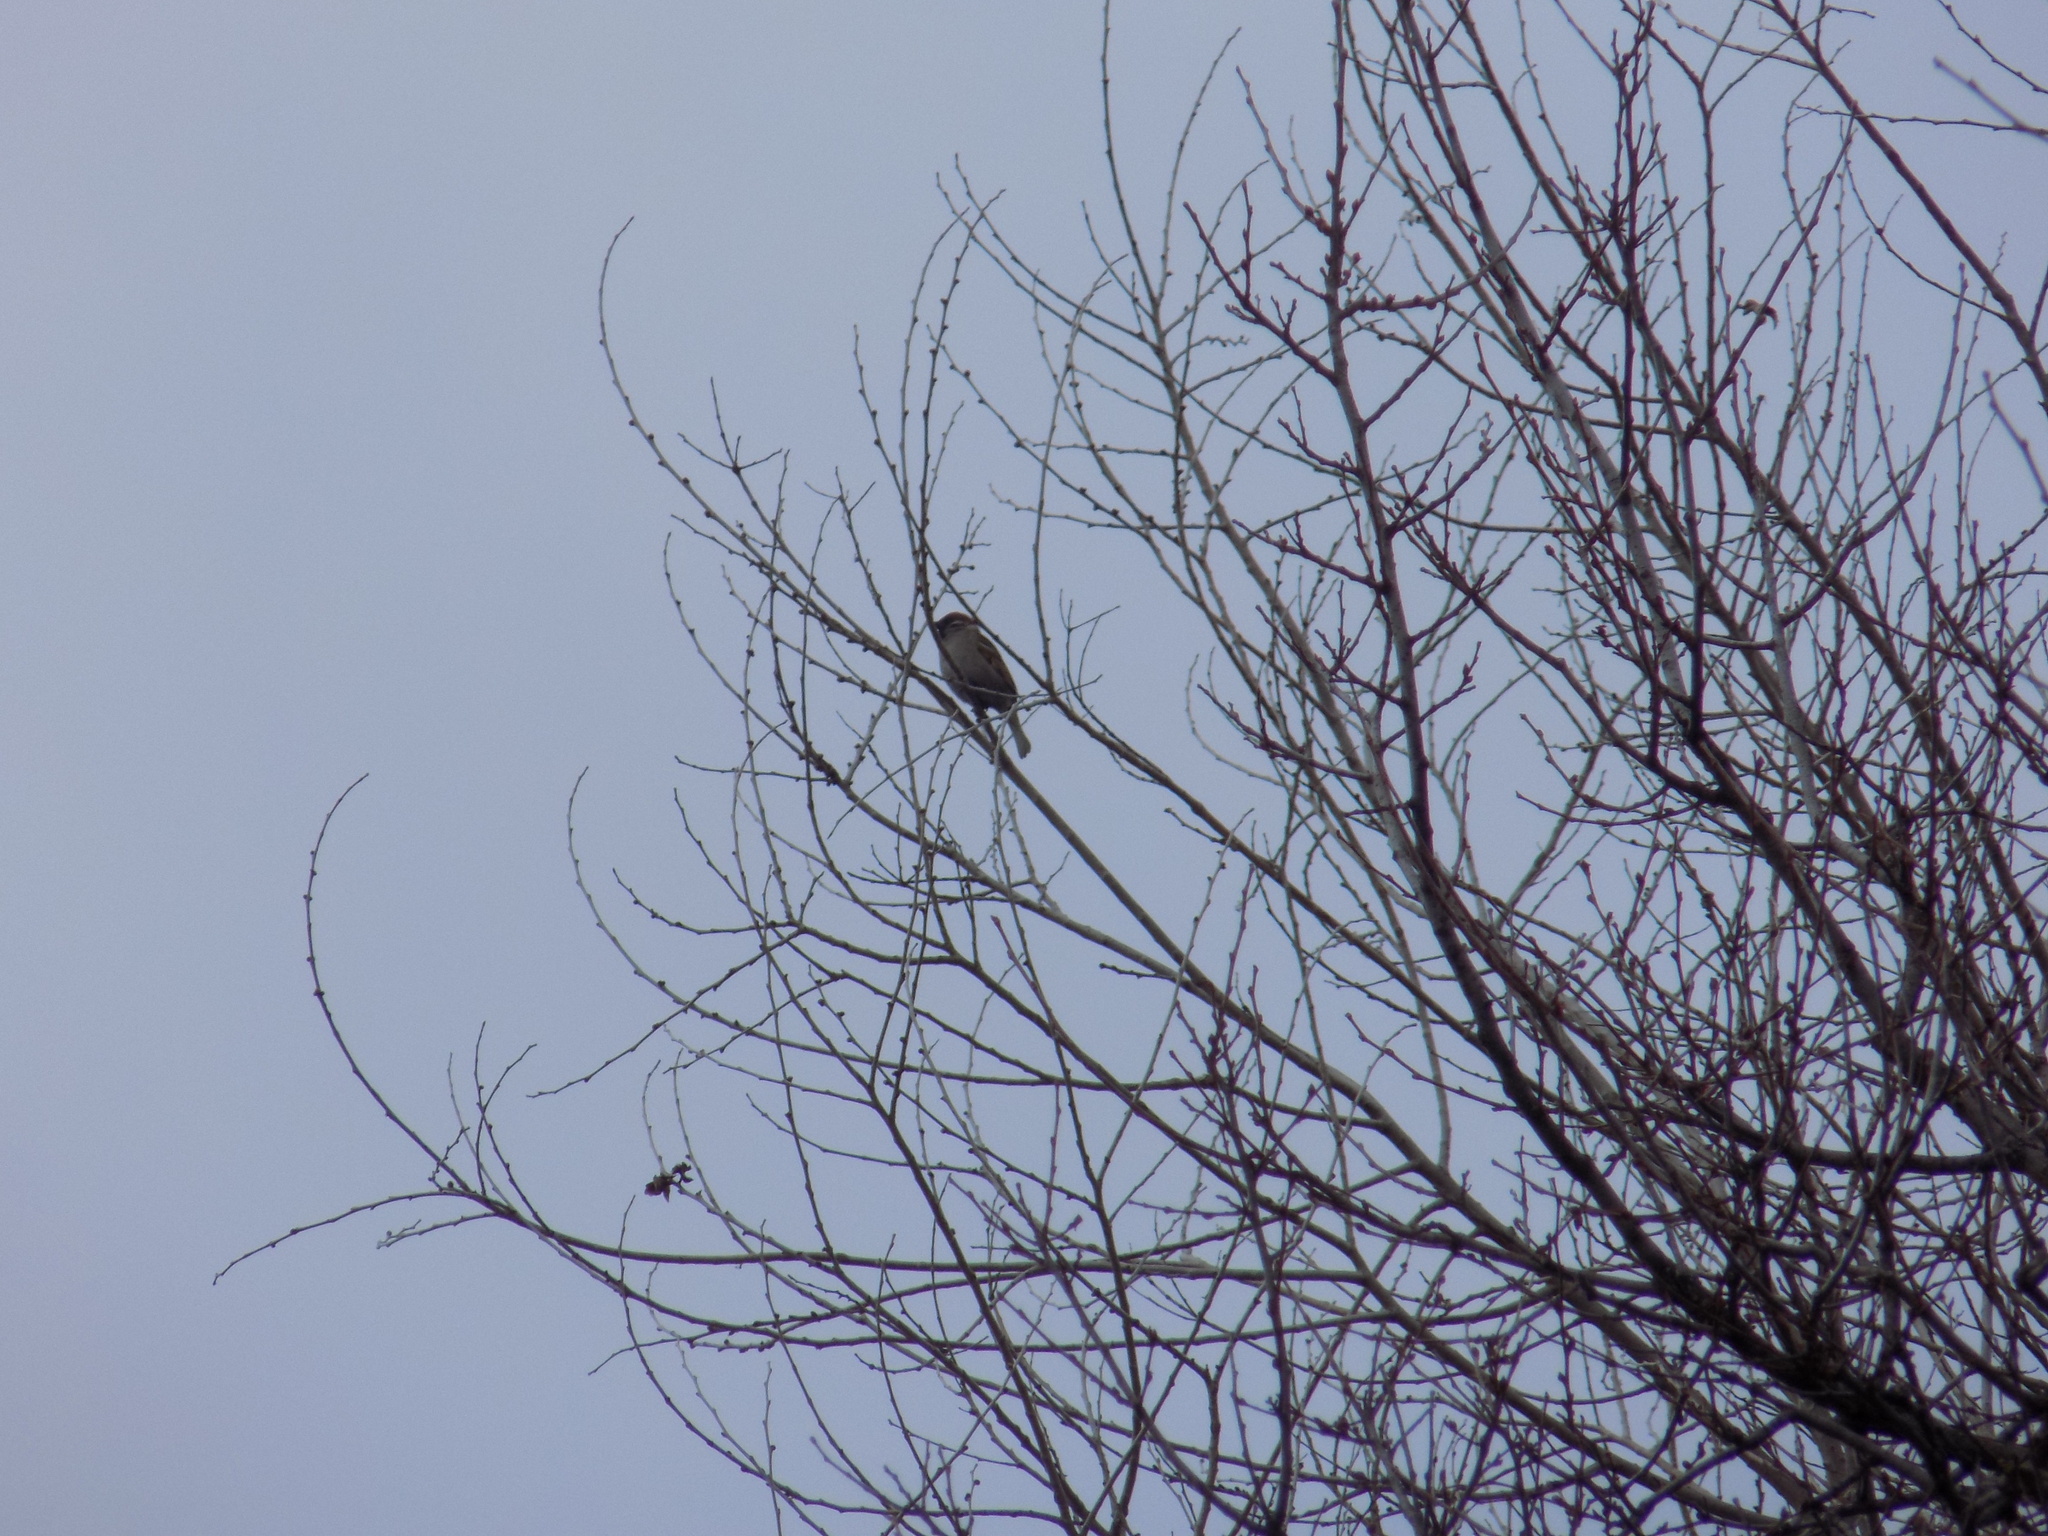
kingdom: Animalia
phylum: Chordata
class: Aves
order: Passeriformes
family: Passeridae
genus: Passer
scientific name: Passer montanus
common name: Eurasian tree sparrow
